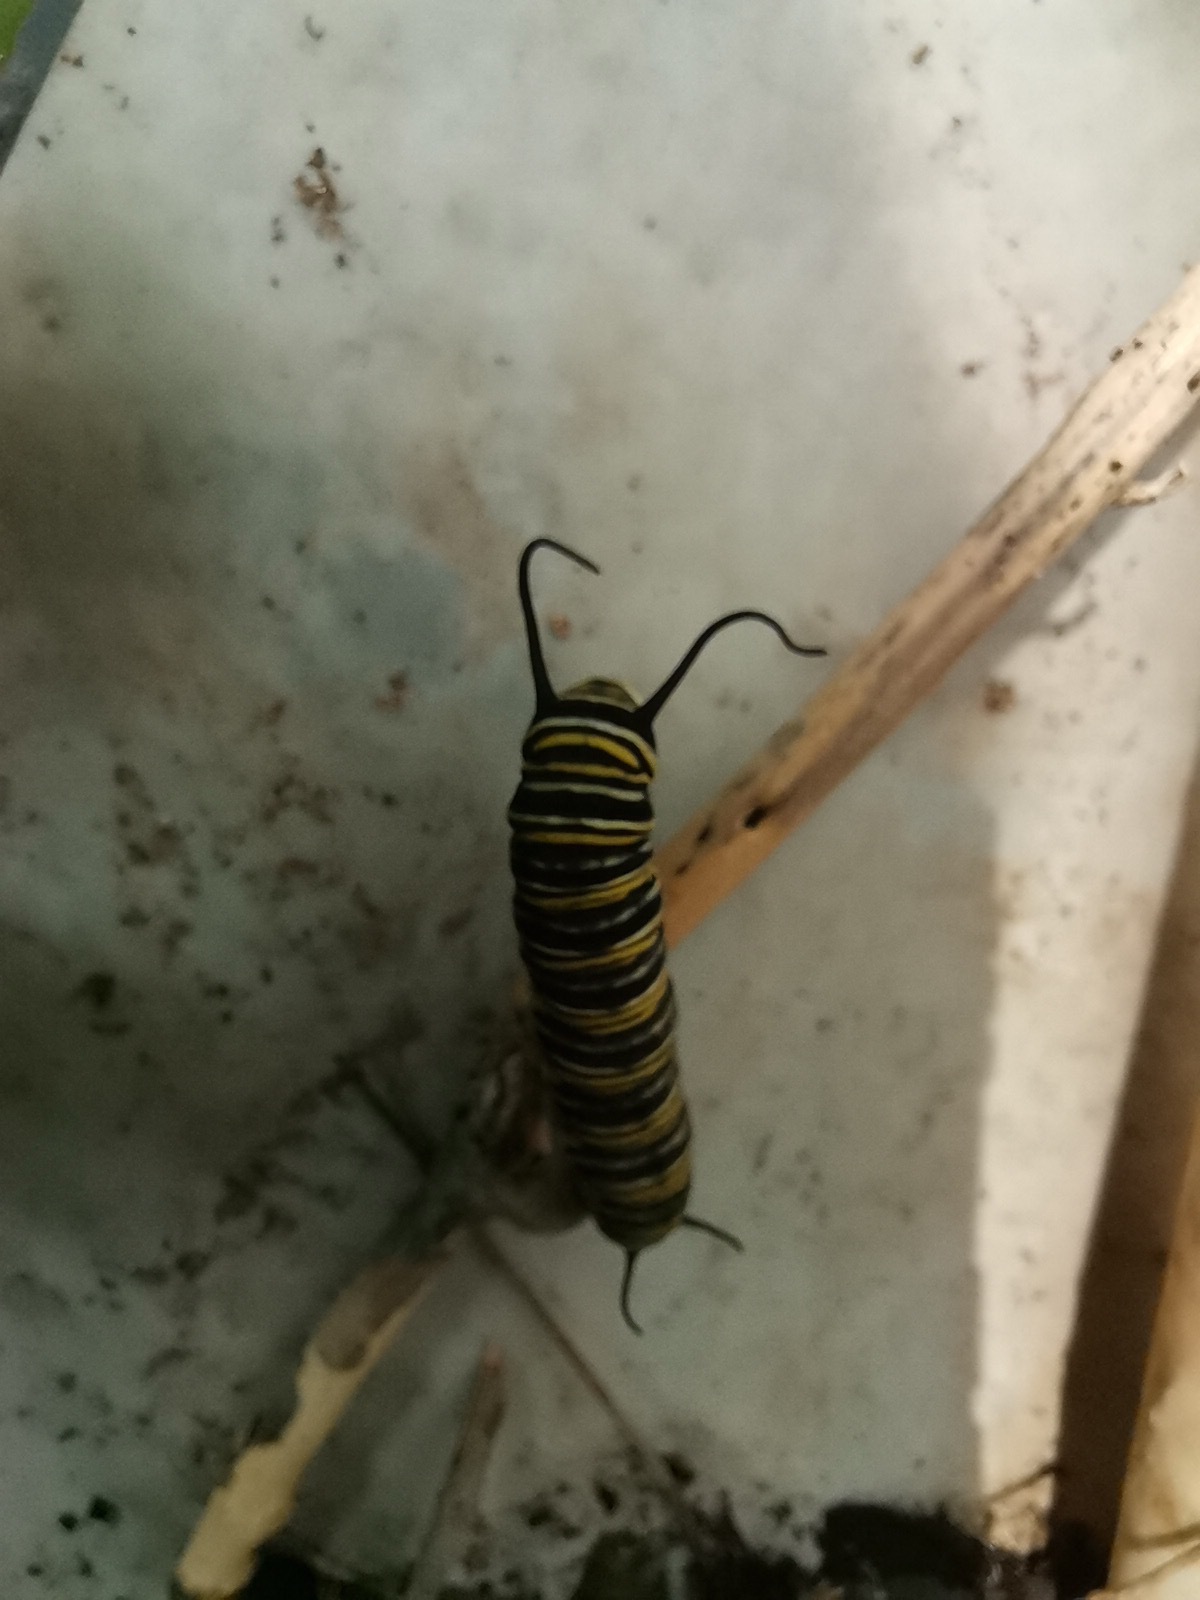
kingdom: Animalia
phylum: Arthropoda
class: Insecta
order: Lepidoptera
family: Nymphalidae
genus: Danaus
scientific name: Danaus plexippus
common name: Monarch
